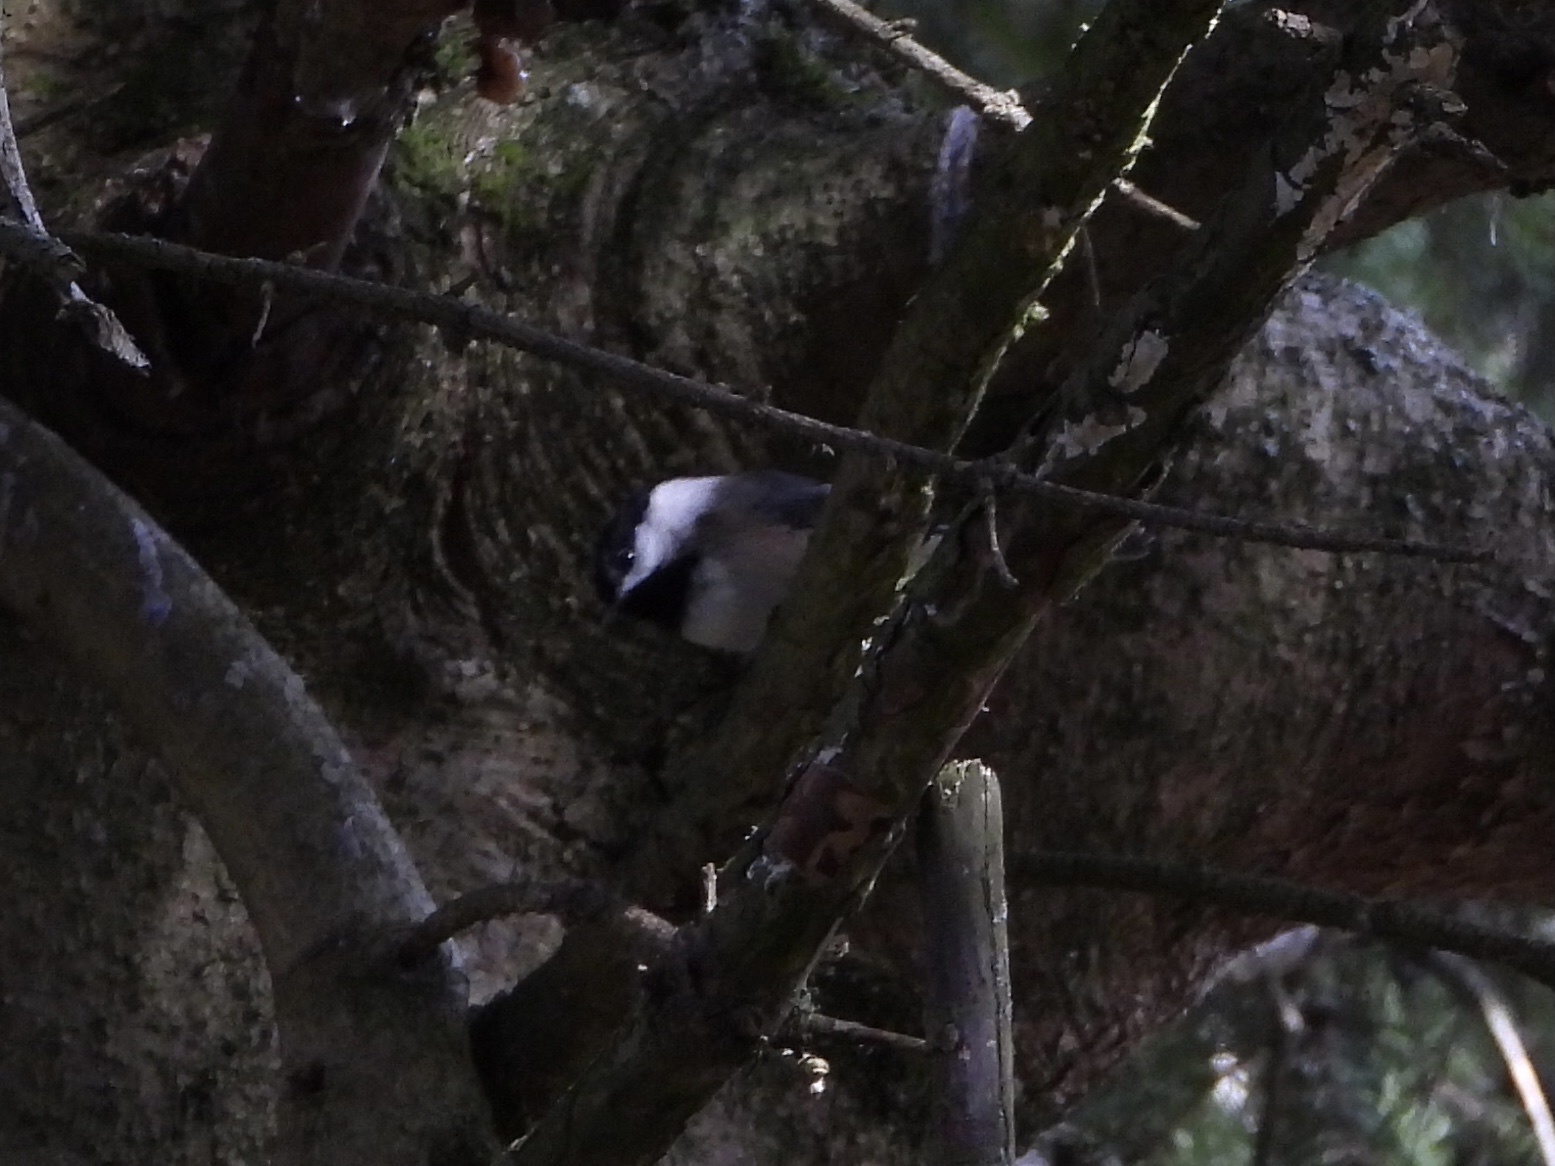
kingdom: Animalia
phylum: Chordata
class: Aves
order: Passeriformes
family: Paridae
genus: Poecile
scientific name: Poecile atricapillus
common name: Black-capped chickadee
